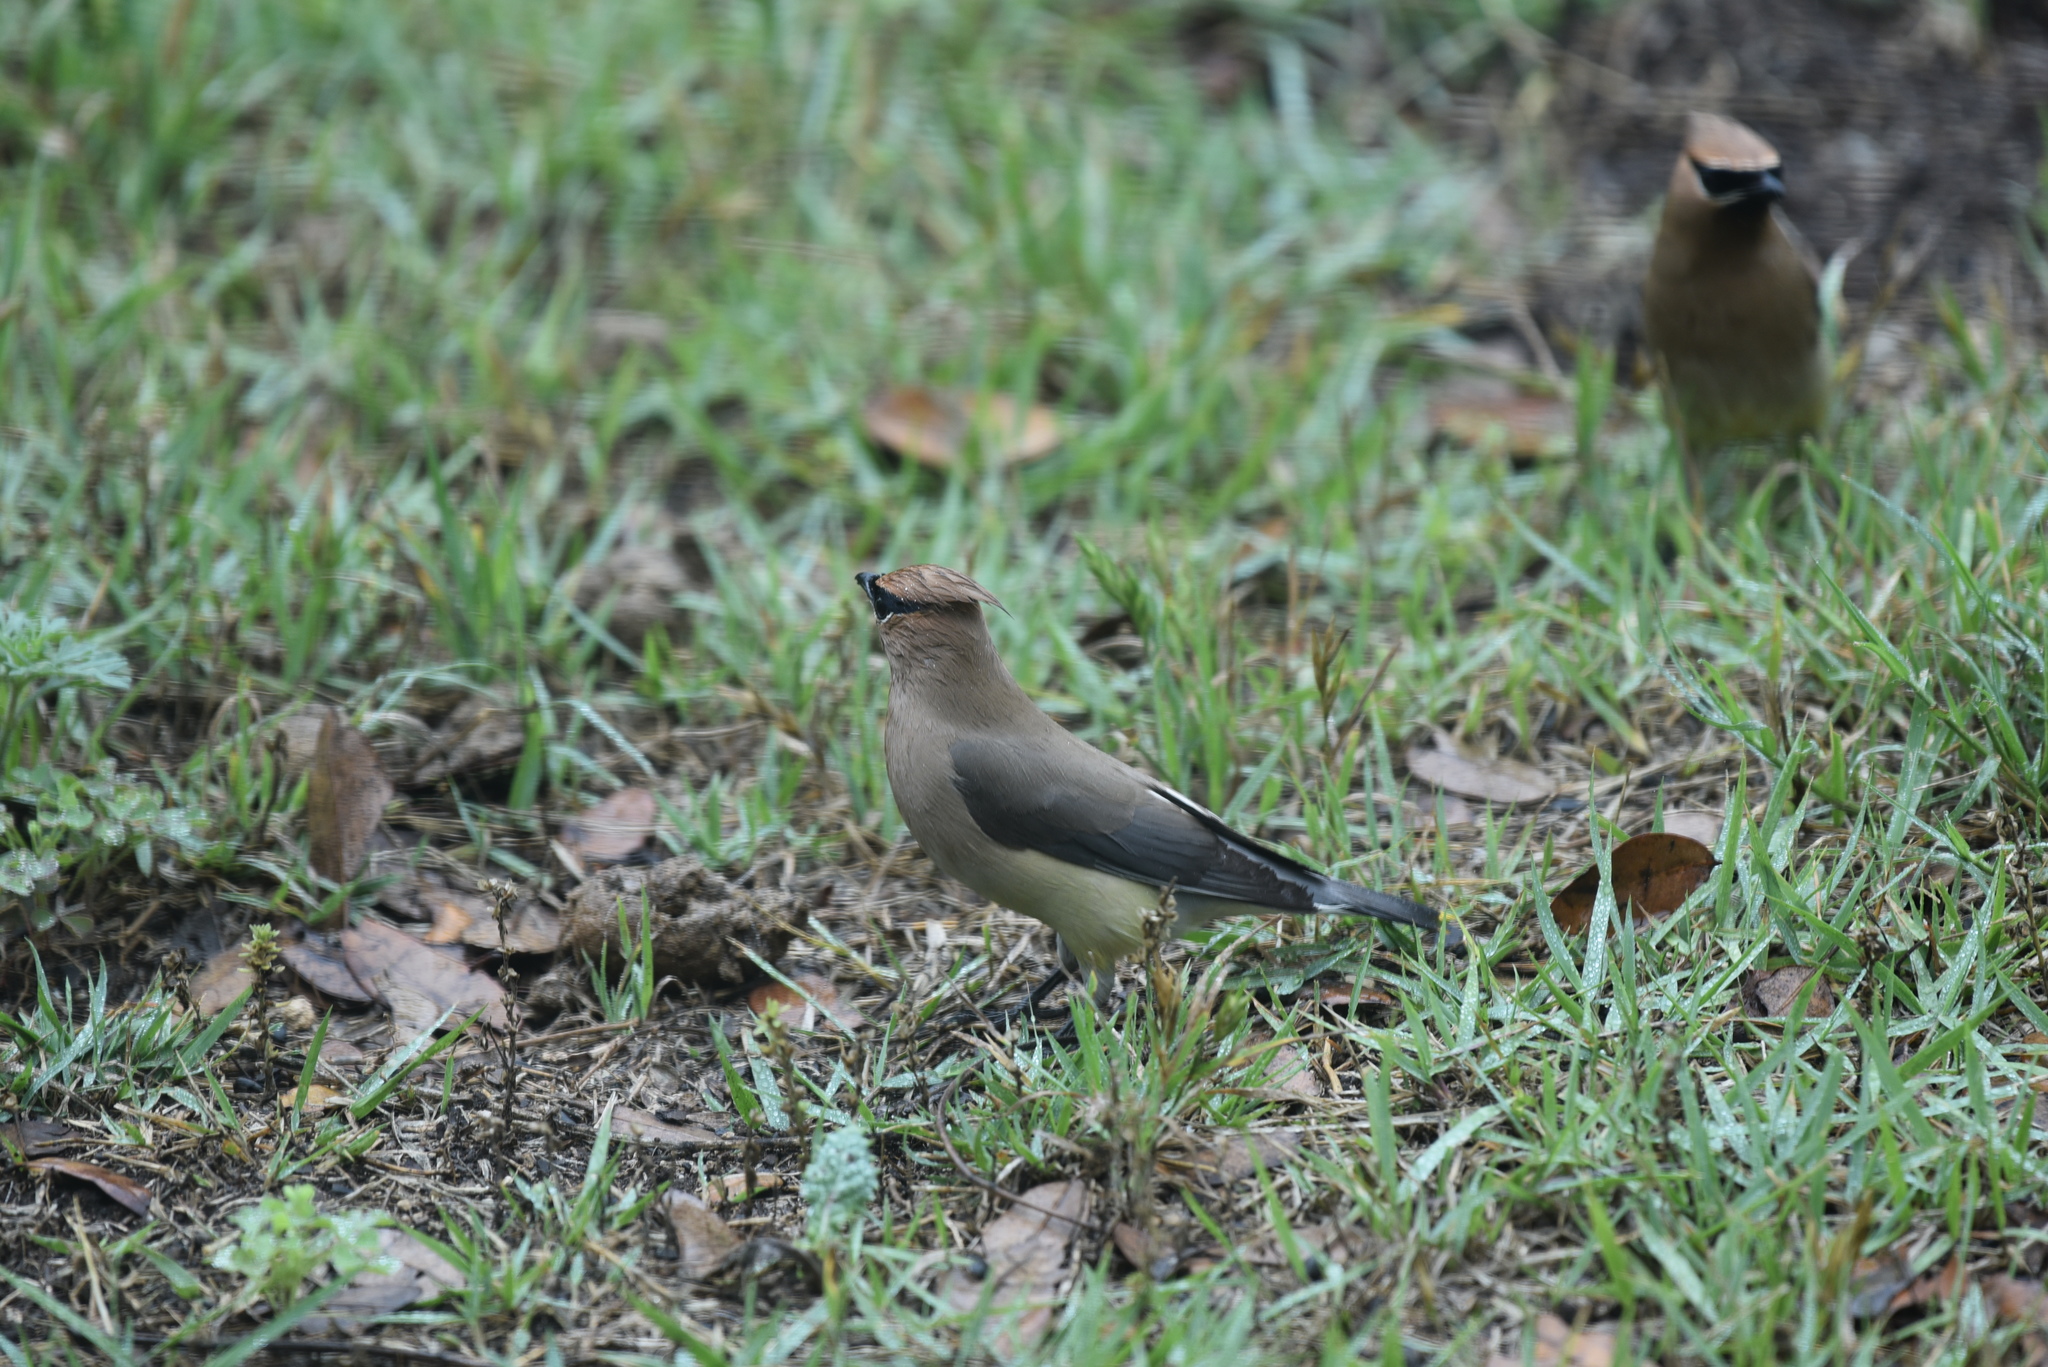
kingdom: Animalia
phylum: Chordata
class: Aves
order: Passeriformes
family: Bombycillidae
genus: Bombycilla
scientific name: Bombycilla cedrorum
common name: Cedar waxwing
